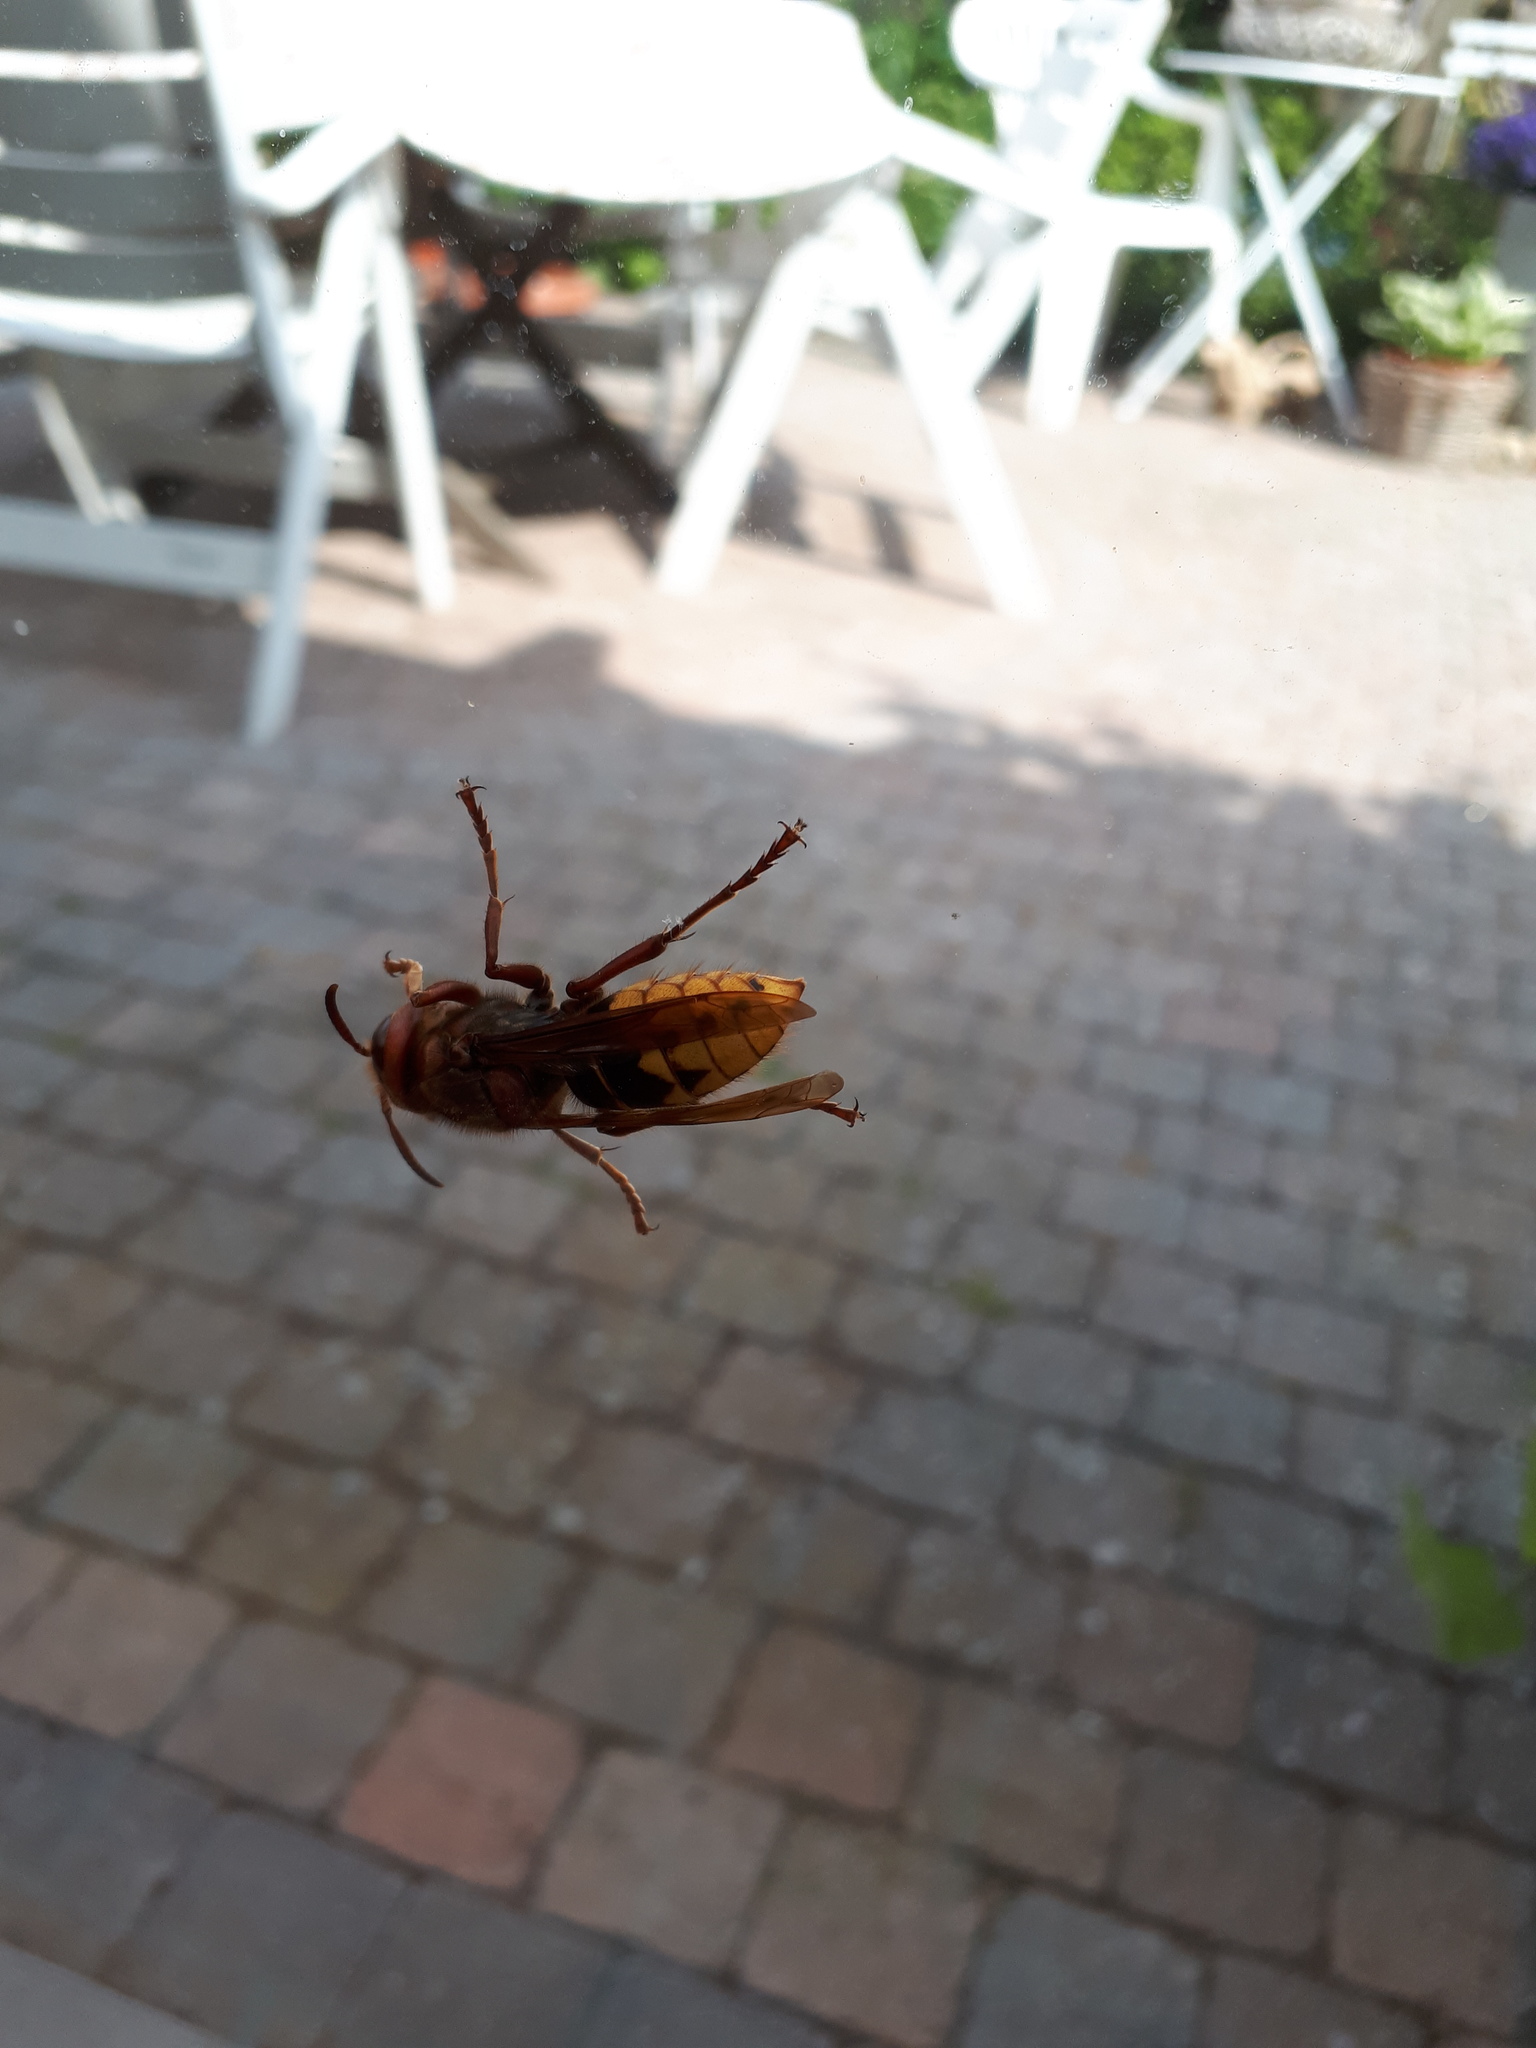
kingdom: Animalia
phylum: Arthropoda
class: Insecta
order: Hymenoptera
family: Vespidae
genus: Vespa
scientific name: Vespa crabro
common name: Hornet
